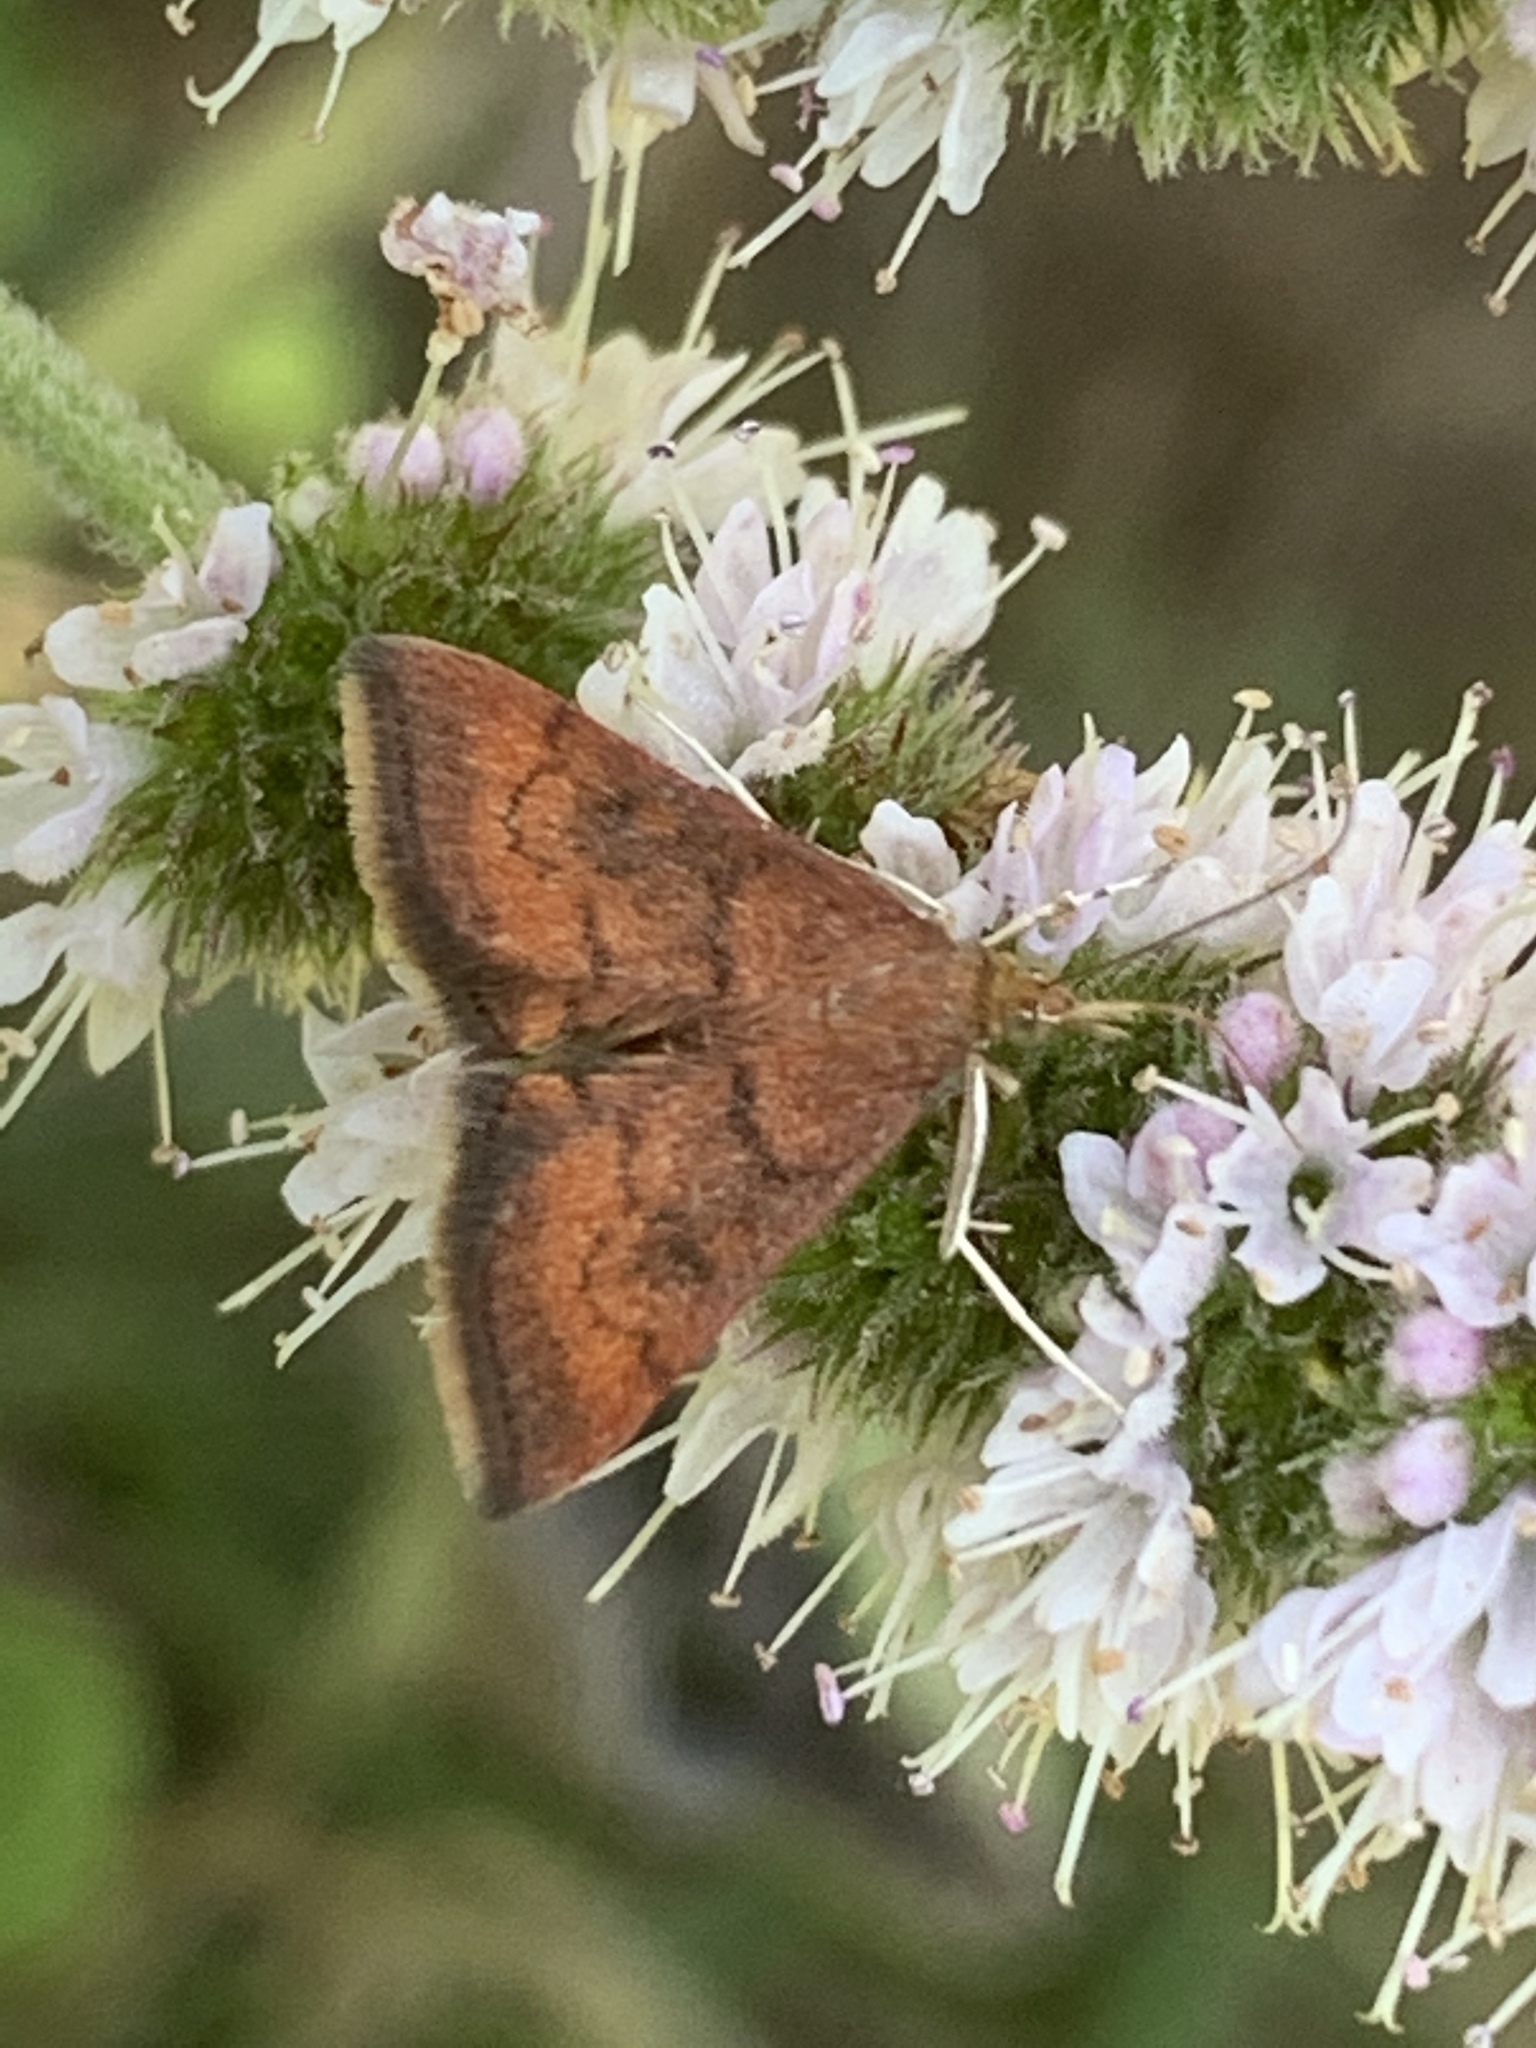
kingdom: Animalia
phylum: Arthropoda
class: Insecta
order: Lepidoptera
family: Crambidae
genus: Pyrausta
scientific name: Pyrausta rubricalis
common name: Variable reddish pyrausta
